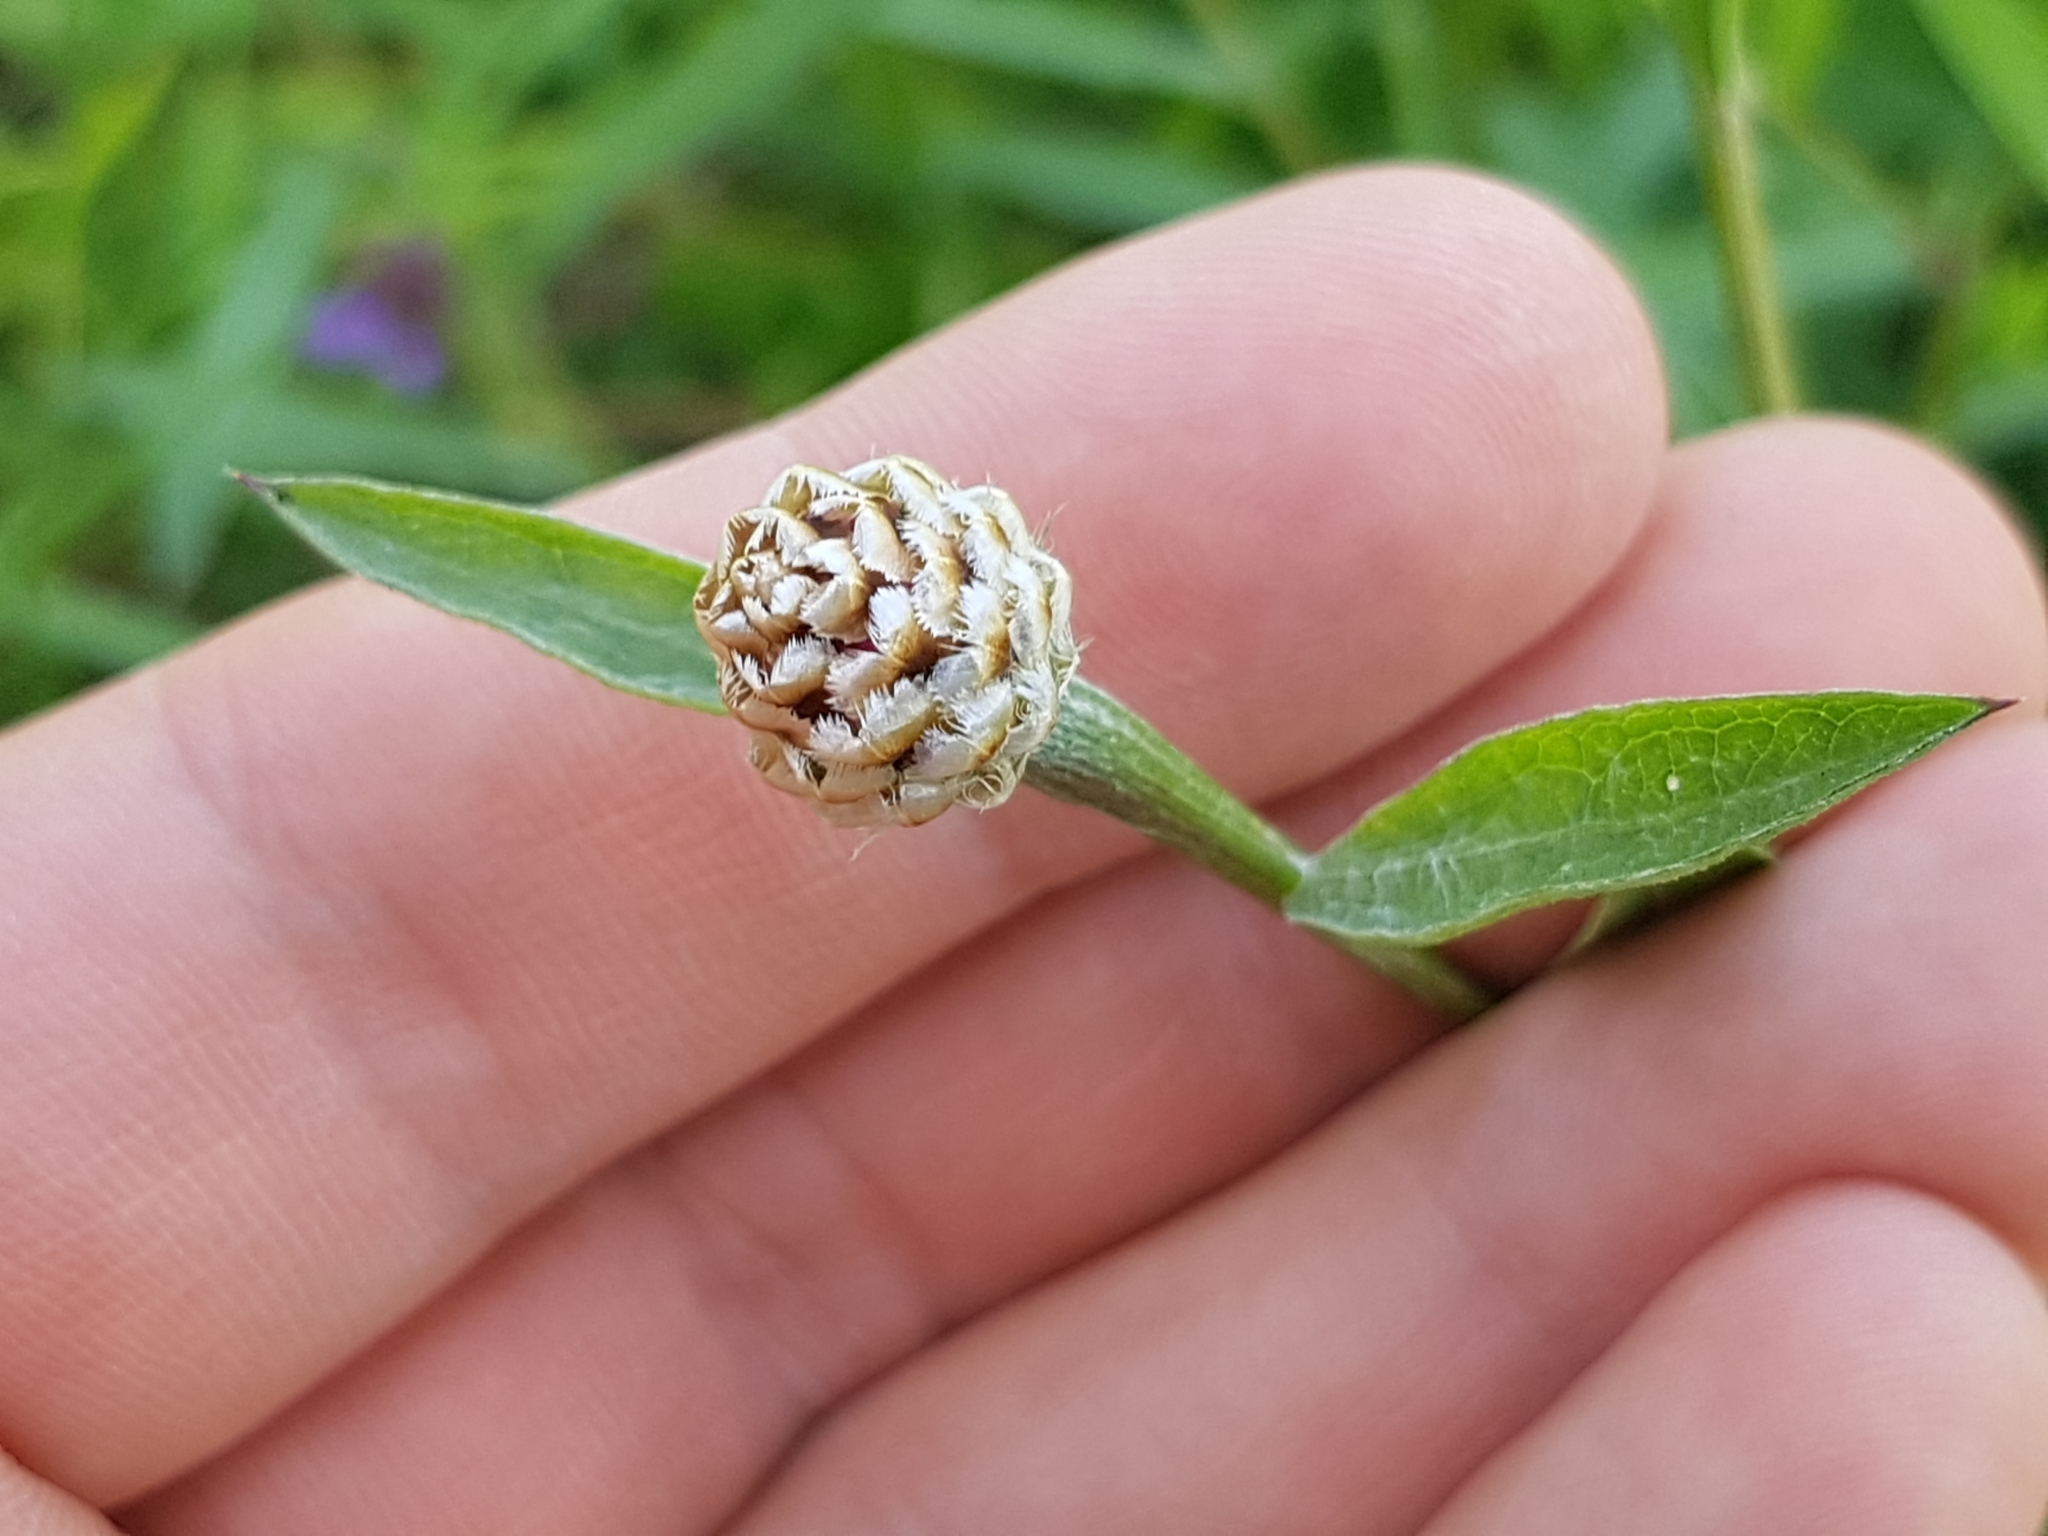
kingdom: Plantae
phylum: Tracheophyta
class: Magnoliopsida
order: Asterales
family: Asteraceae
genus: Centaurea
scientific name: Centaurea jacea
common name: Brown knapweed
